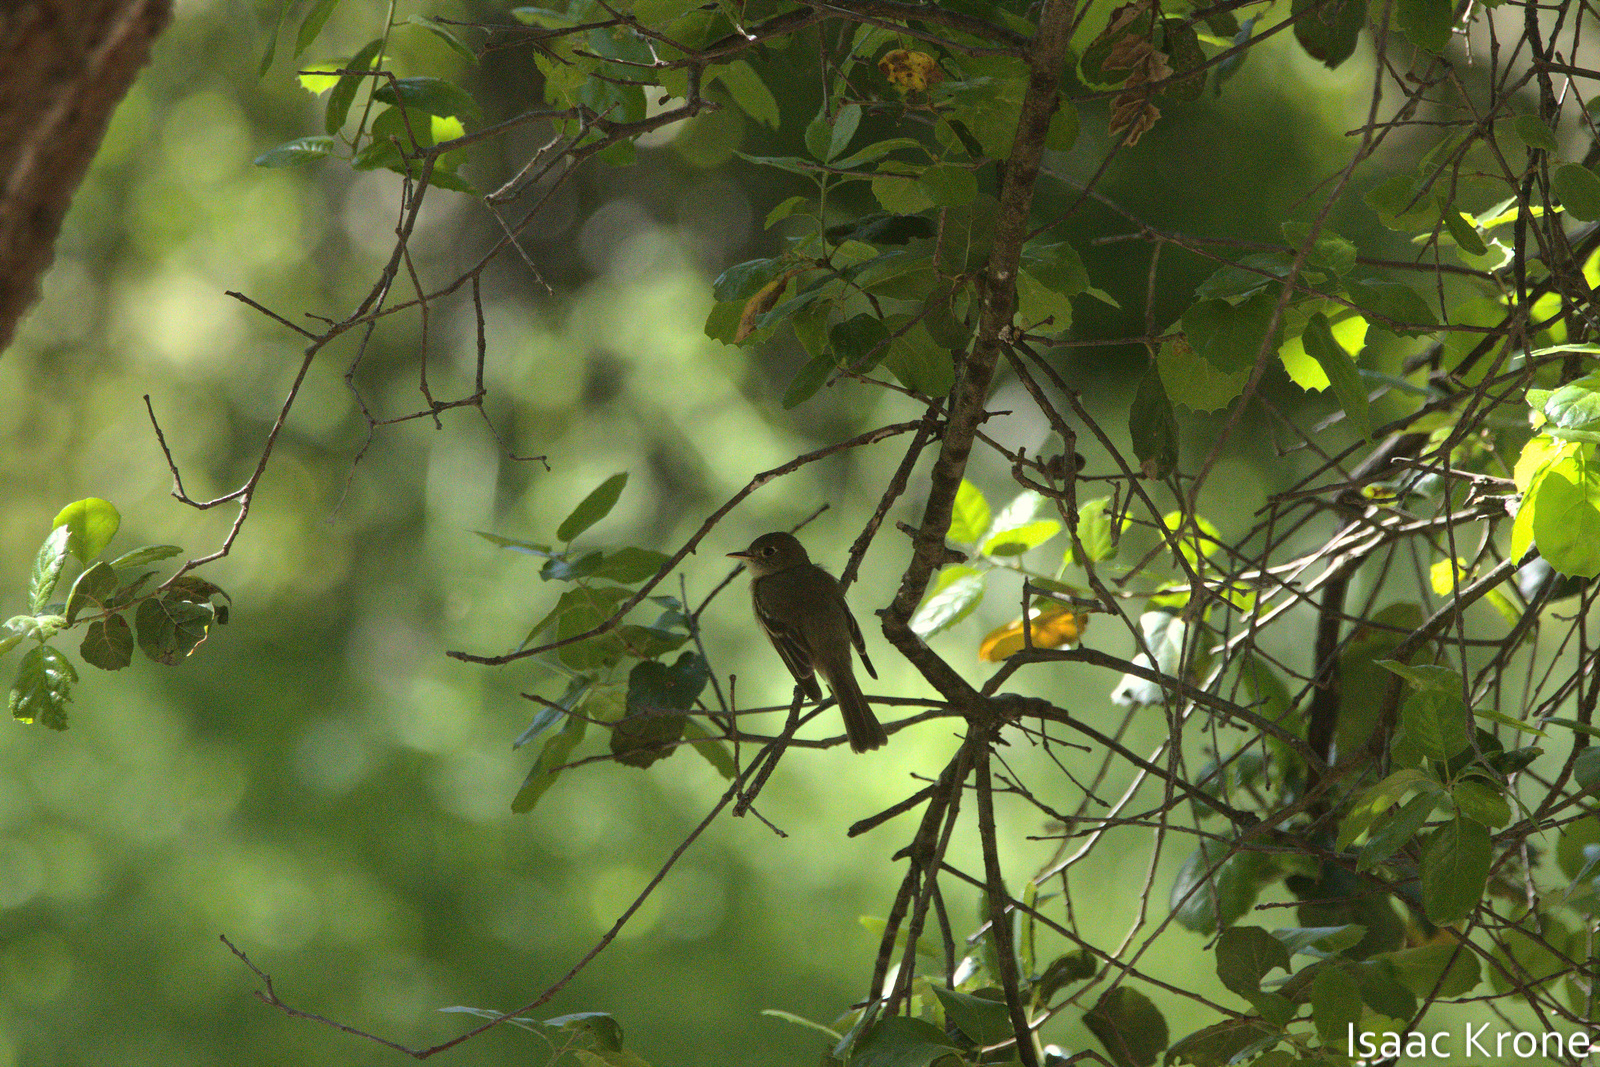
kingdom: Animalia
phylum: Chordata
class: Aves
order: Passeriformes
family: Tyrannidae
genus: Empidonax
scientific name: Empidonax difficilis
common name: Pacific-slope flycatcher
